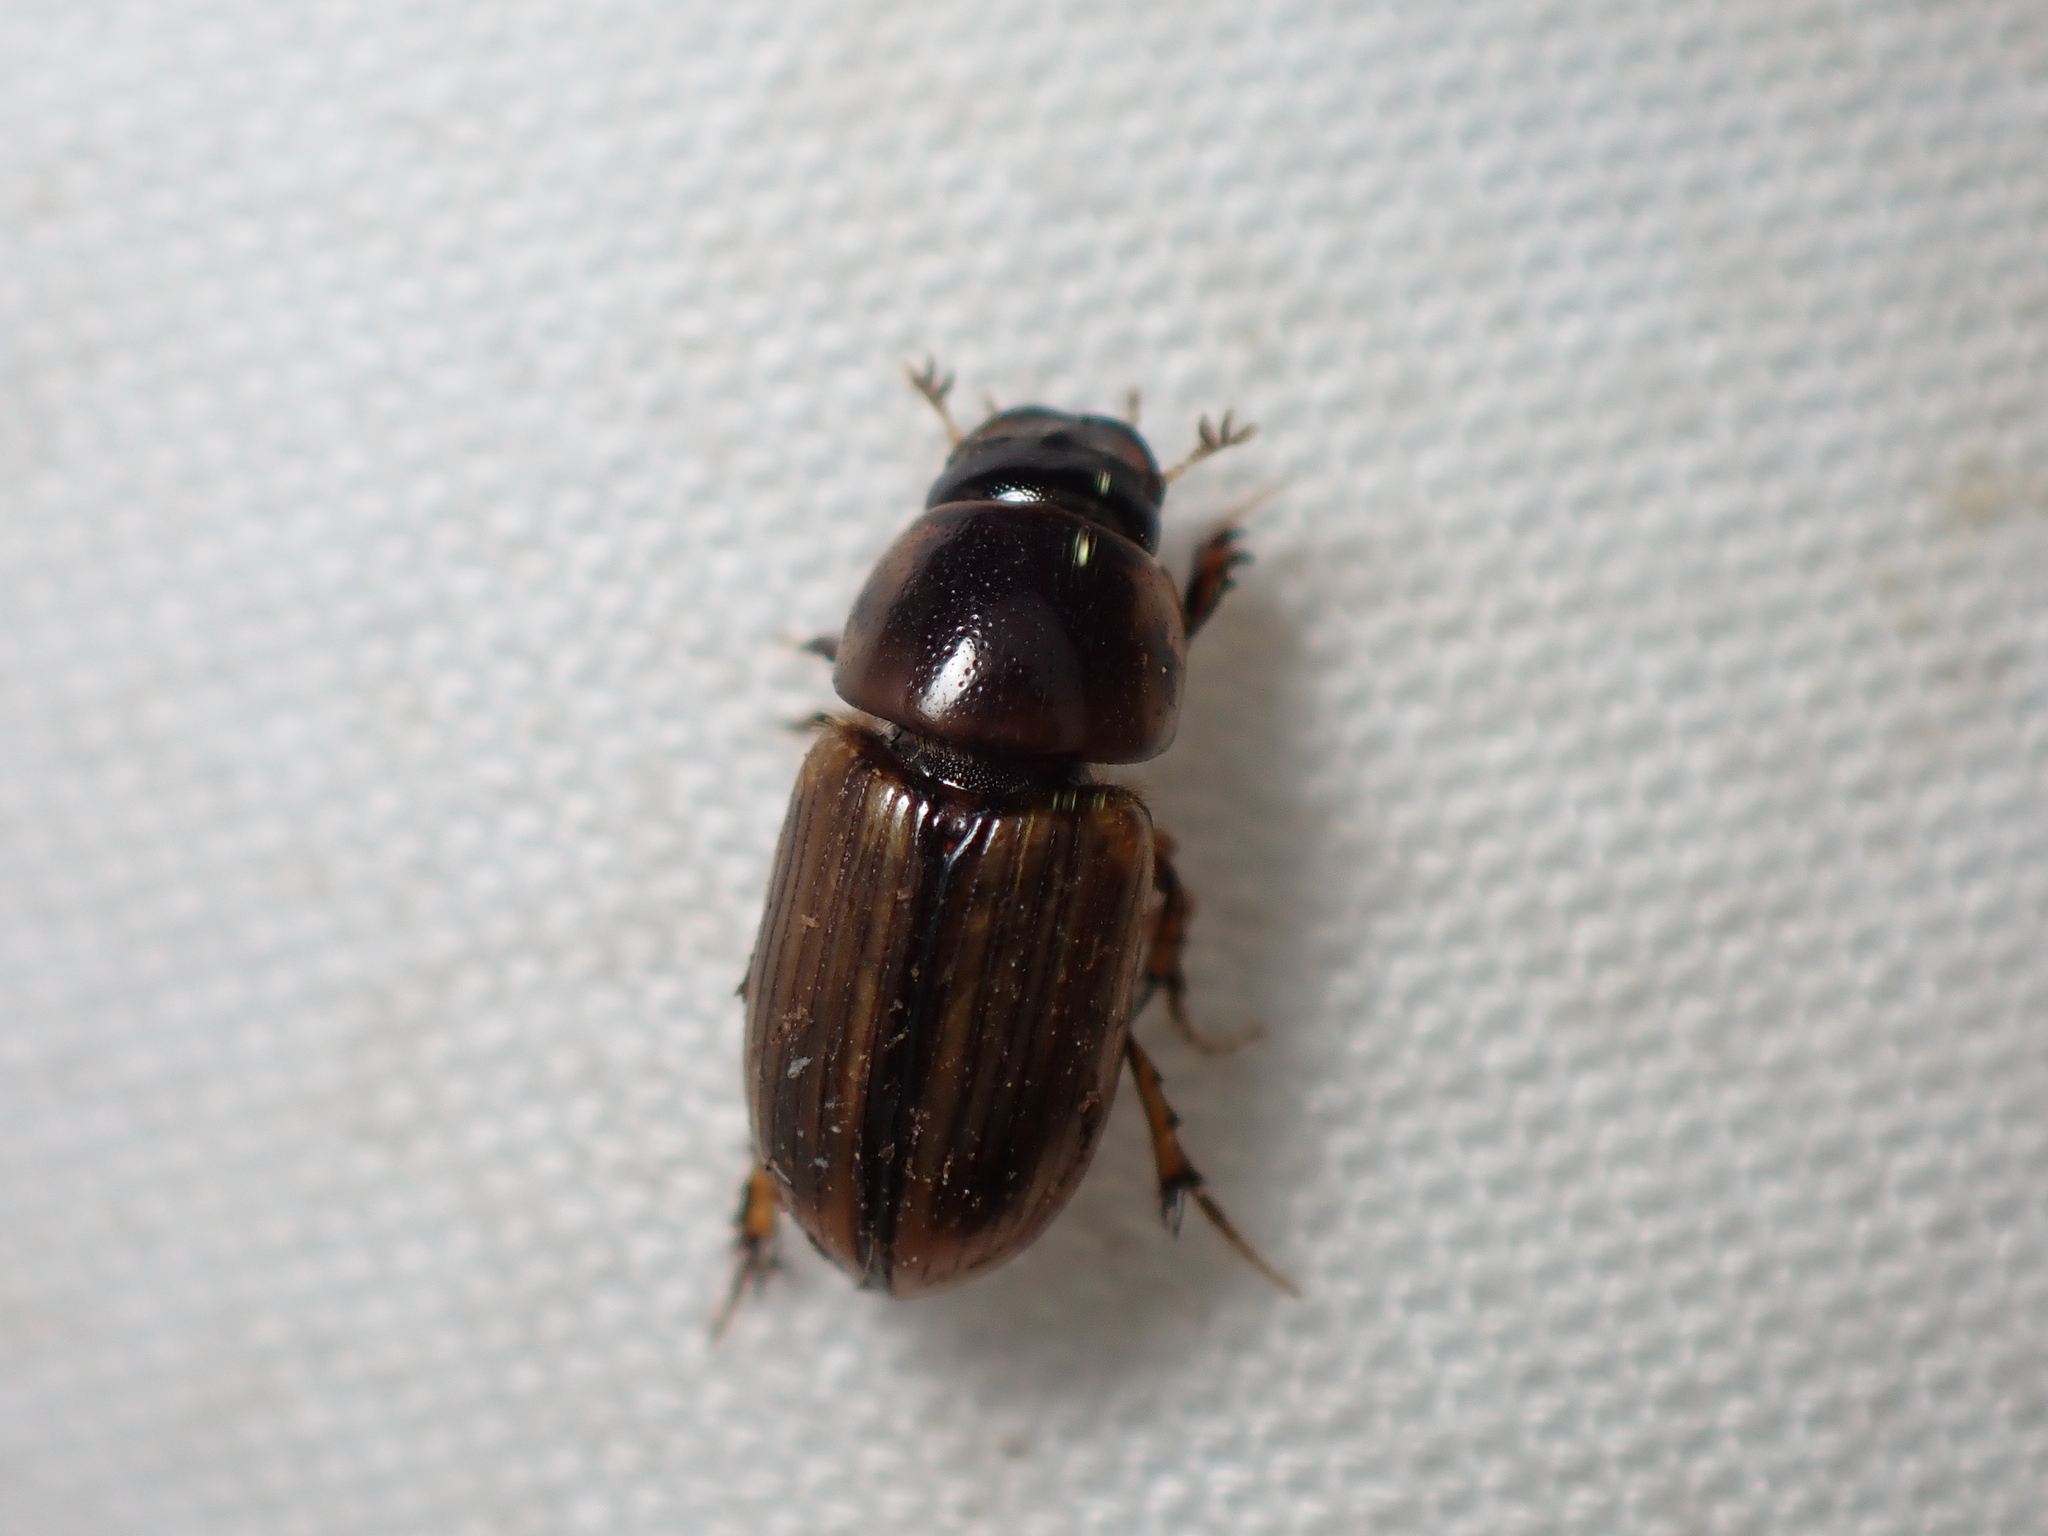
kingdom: Animalia
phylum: Arthropoda
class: Insecta
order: Coleoptera
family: Scarabaeidae
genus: Labarrus
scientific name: Labarrus lividus
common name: Scarab beetle
